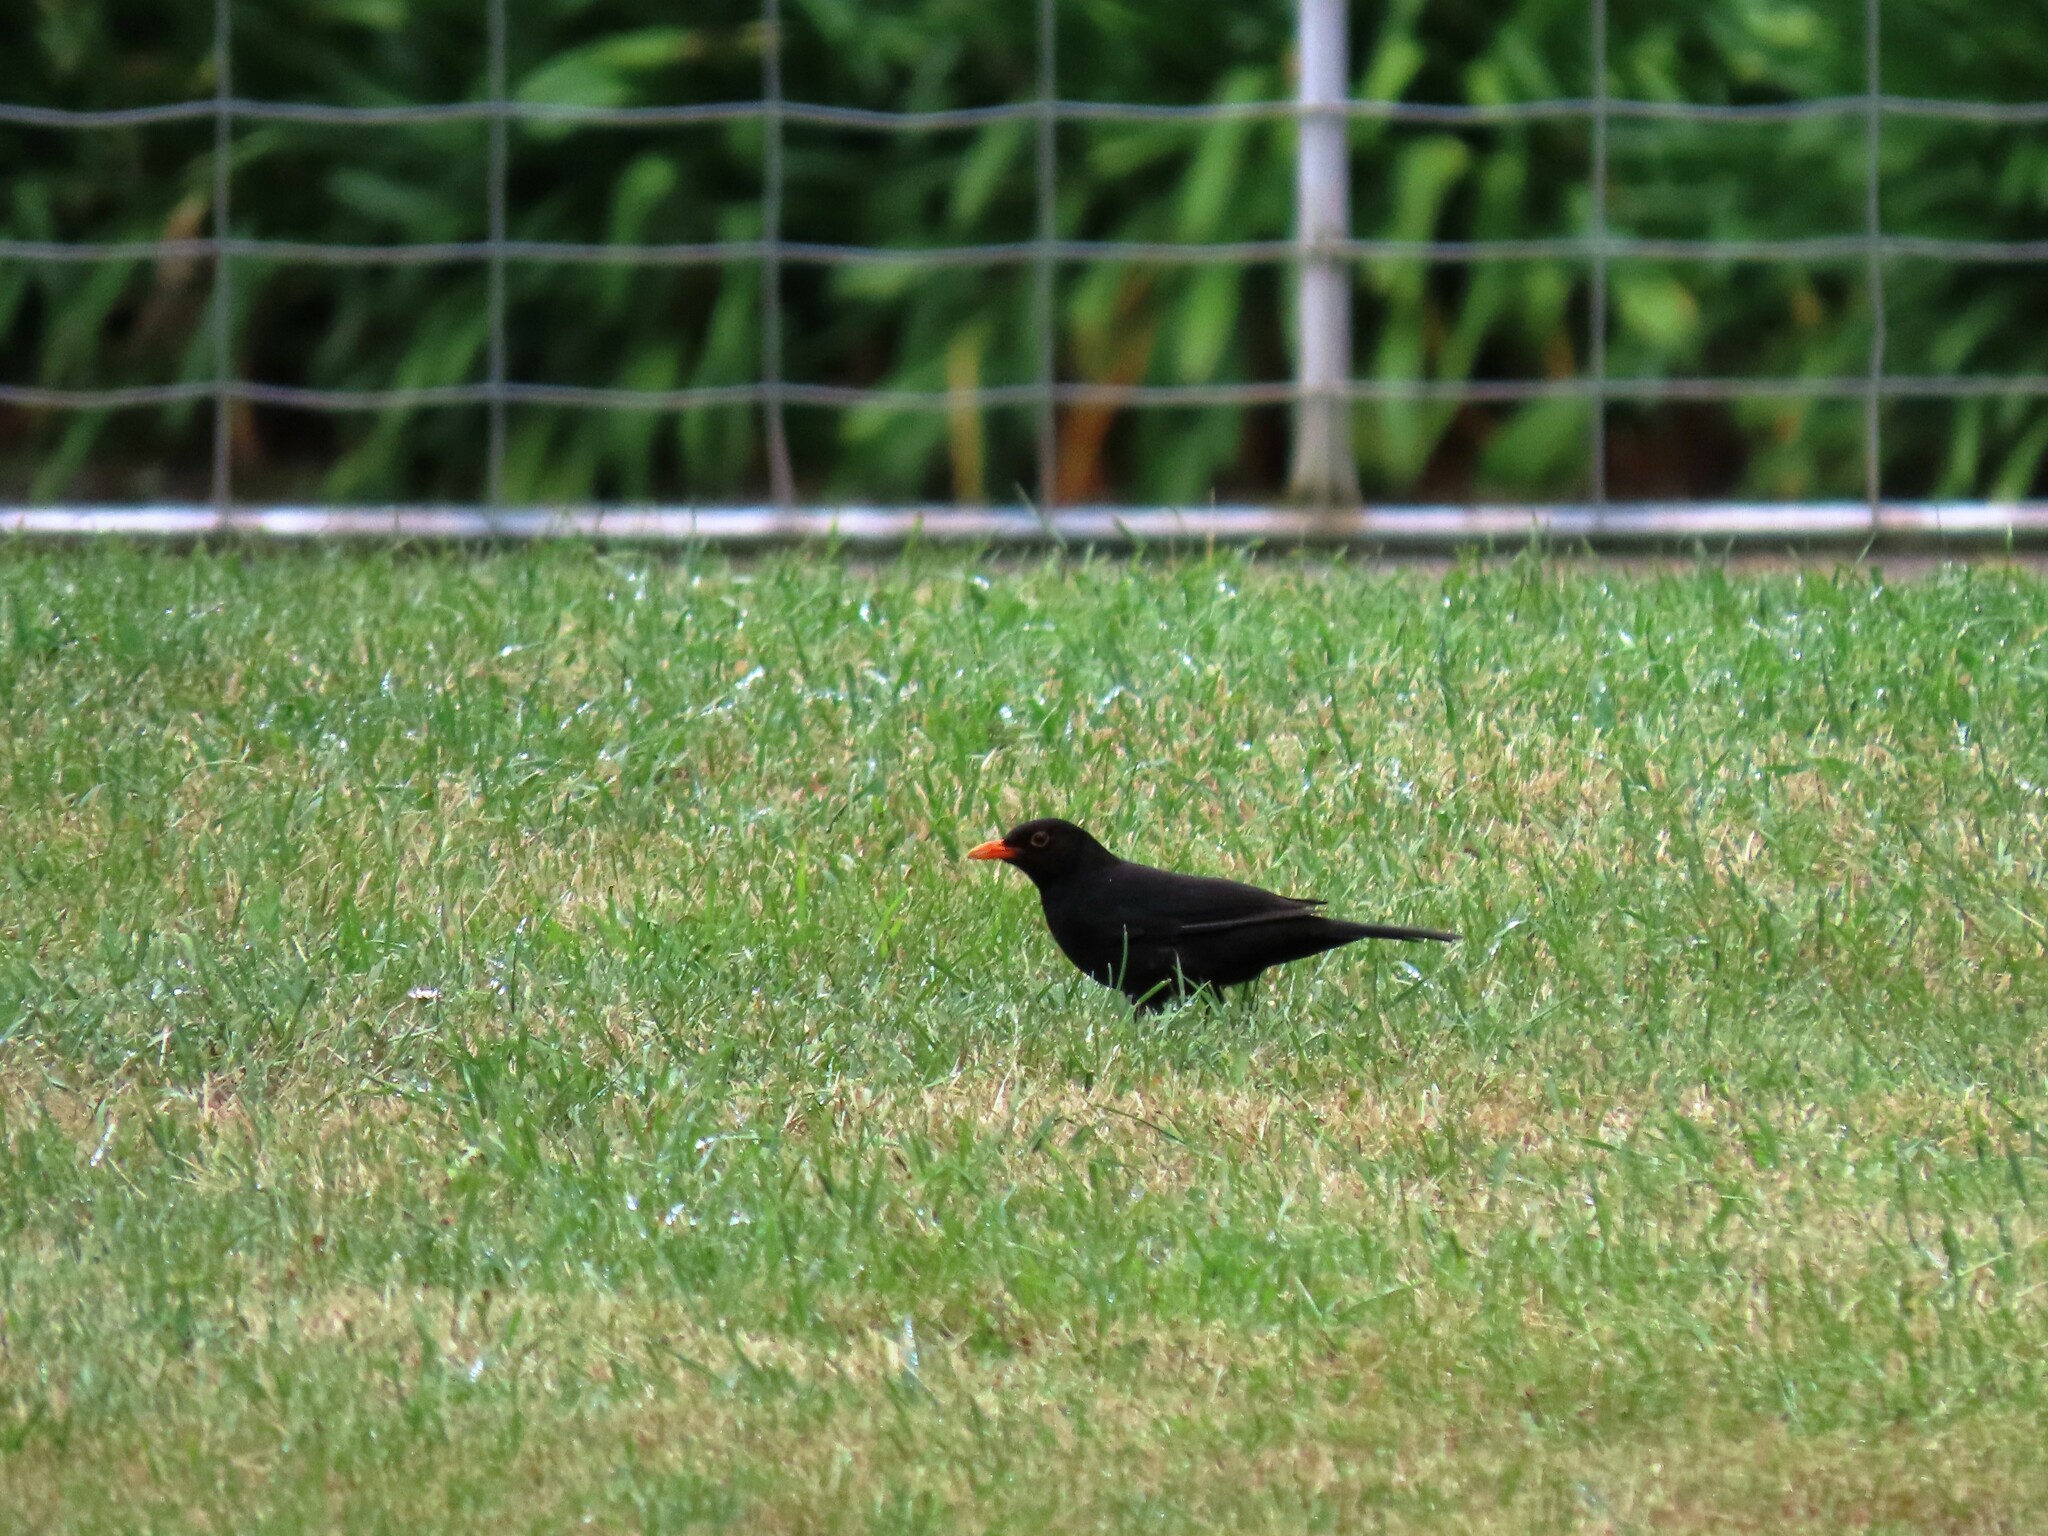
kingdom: Animalia
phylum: Chordata
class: Aves
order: Passeriformes
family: Turdidae
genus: Turdus
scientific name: Turdus merula
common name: Common blackbird
